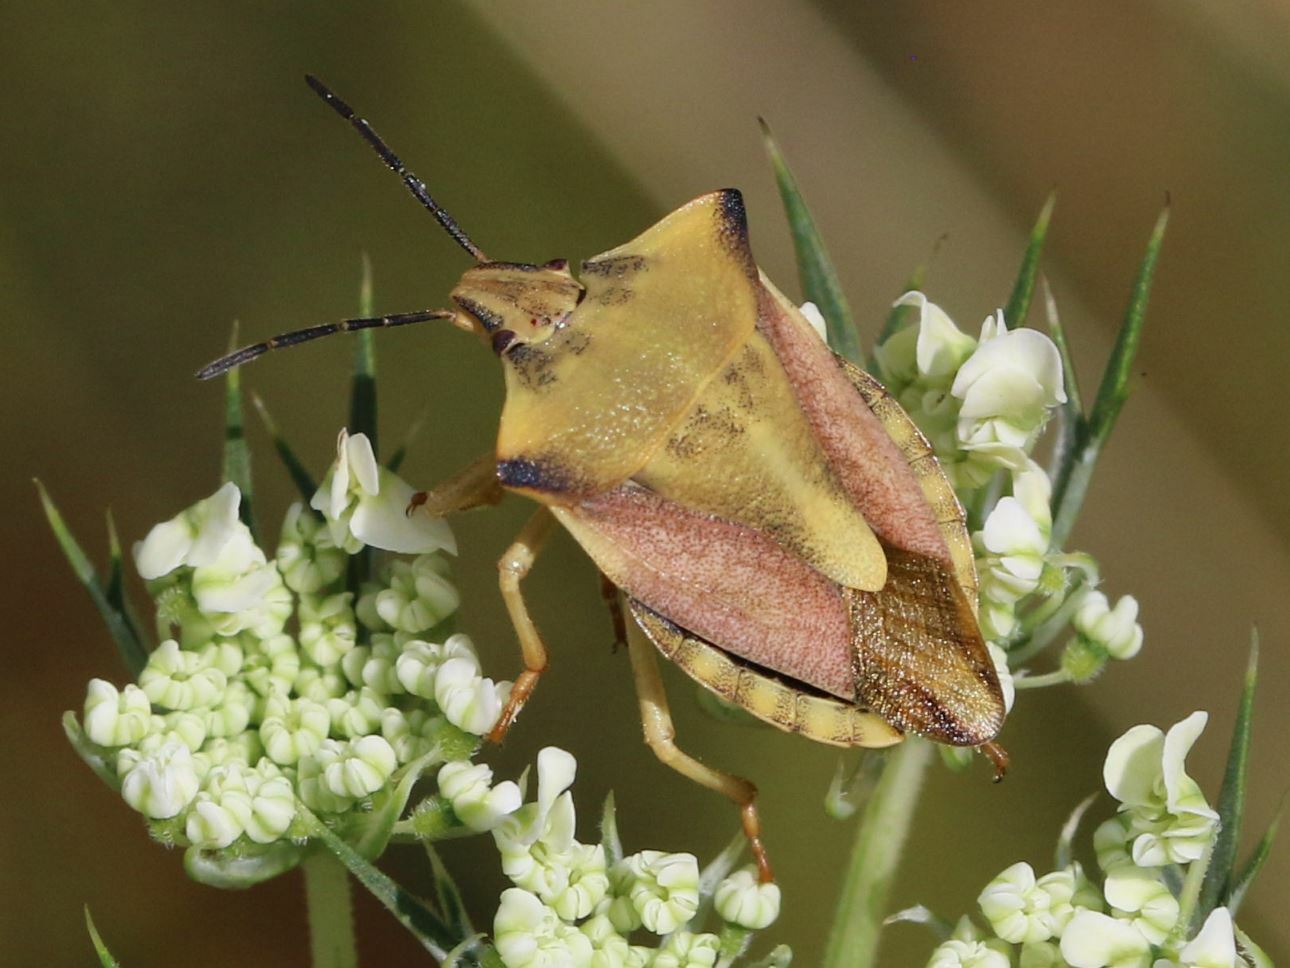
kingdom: Animalia
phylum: Arthropoda
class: Insecta
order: Hemiptera
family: Pentatomidae
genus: Carpocoris
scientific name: Carpocoris fuscispinus
